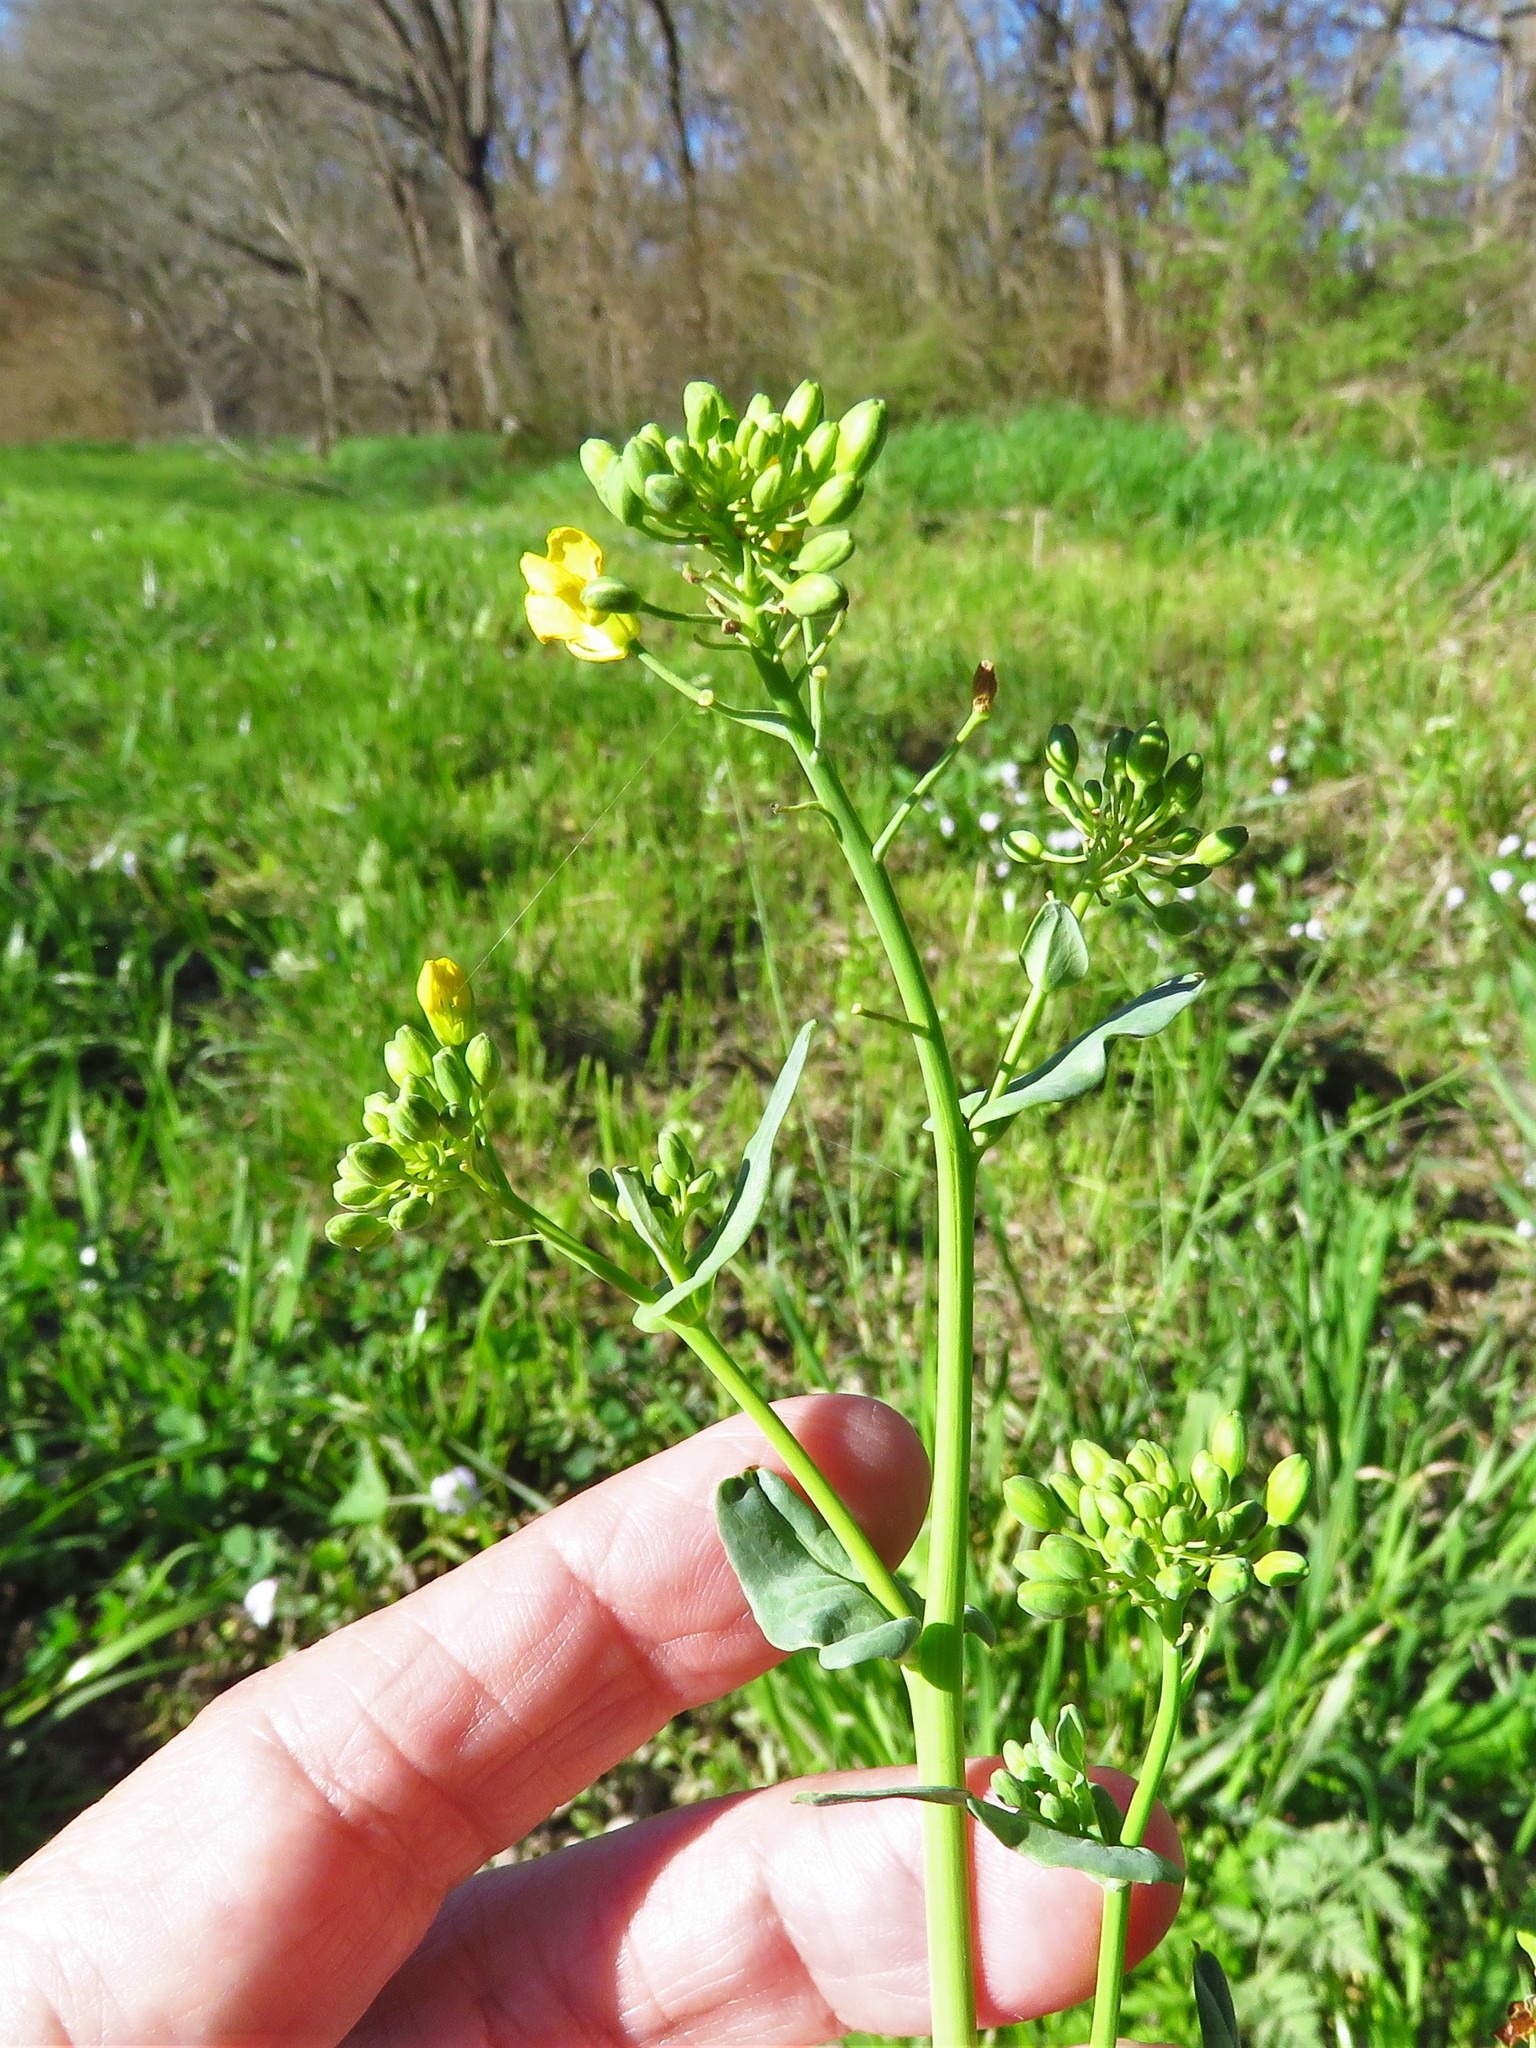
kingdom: Plantae
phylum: Tracheophyta
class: Magnoliopsida
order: Brassicales
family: Brassicaceae
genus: Brassica
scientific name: Brassica rapa
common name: Field mustard
